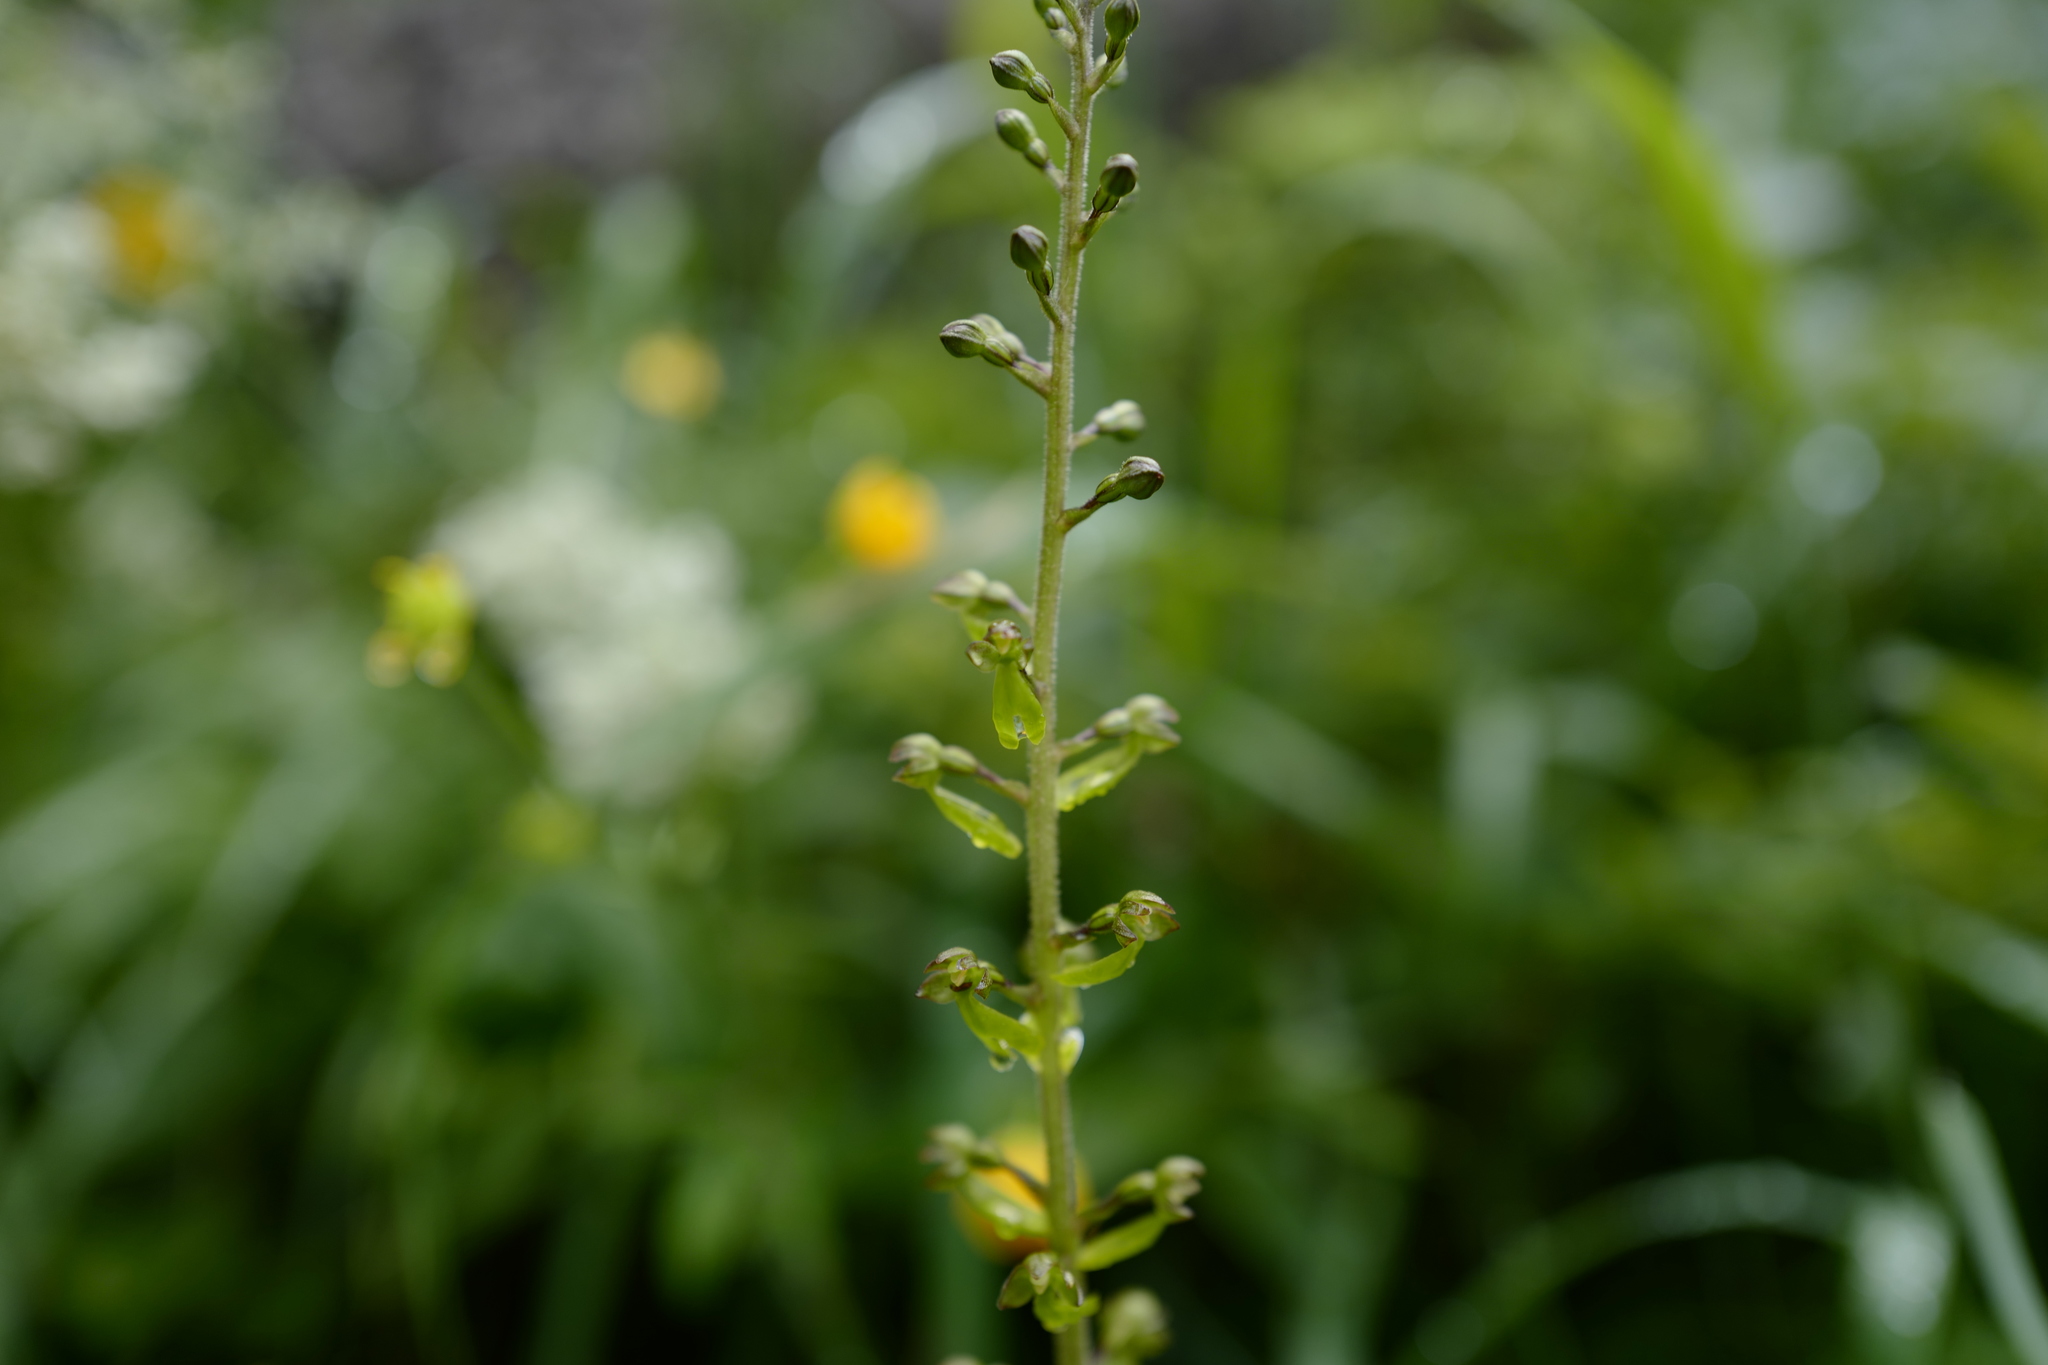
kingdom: Plantae
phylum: Tracheophyta
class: Liliopsida
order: Asparagales
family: Orchidaceae
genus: Neottia
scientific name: Neottia ovata
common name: Common twayblade
